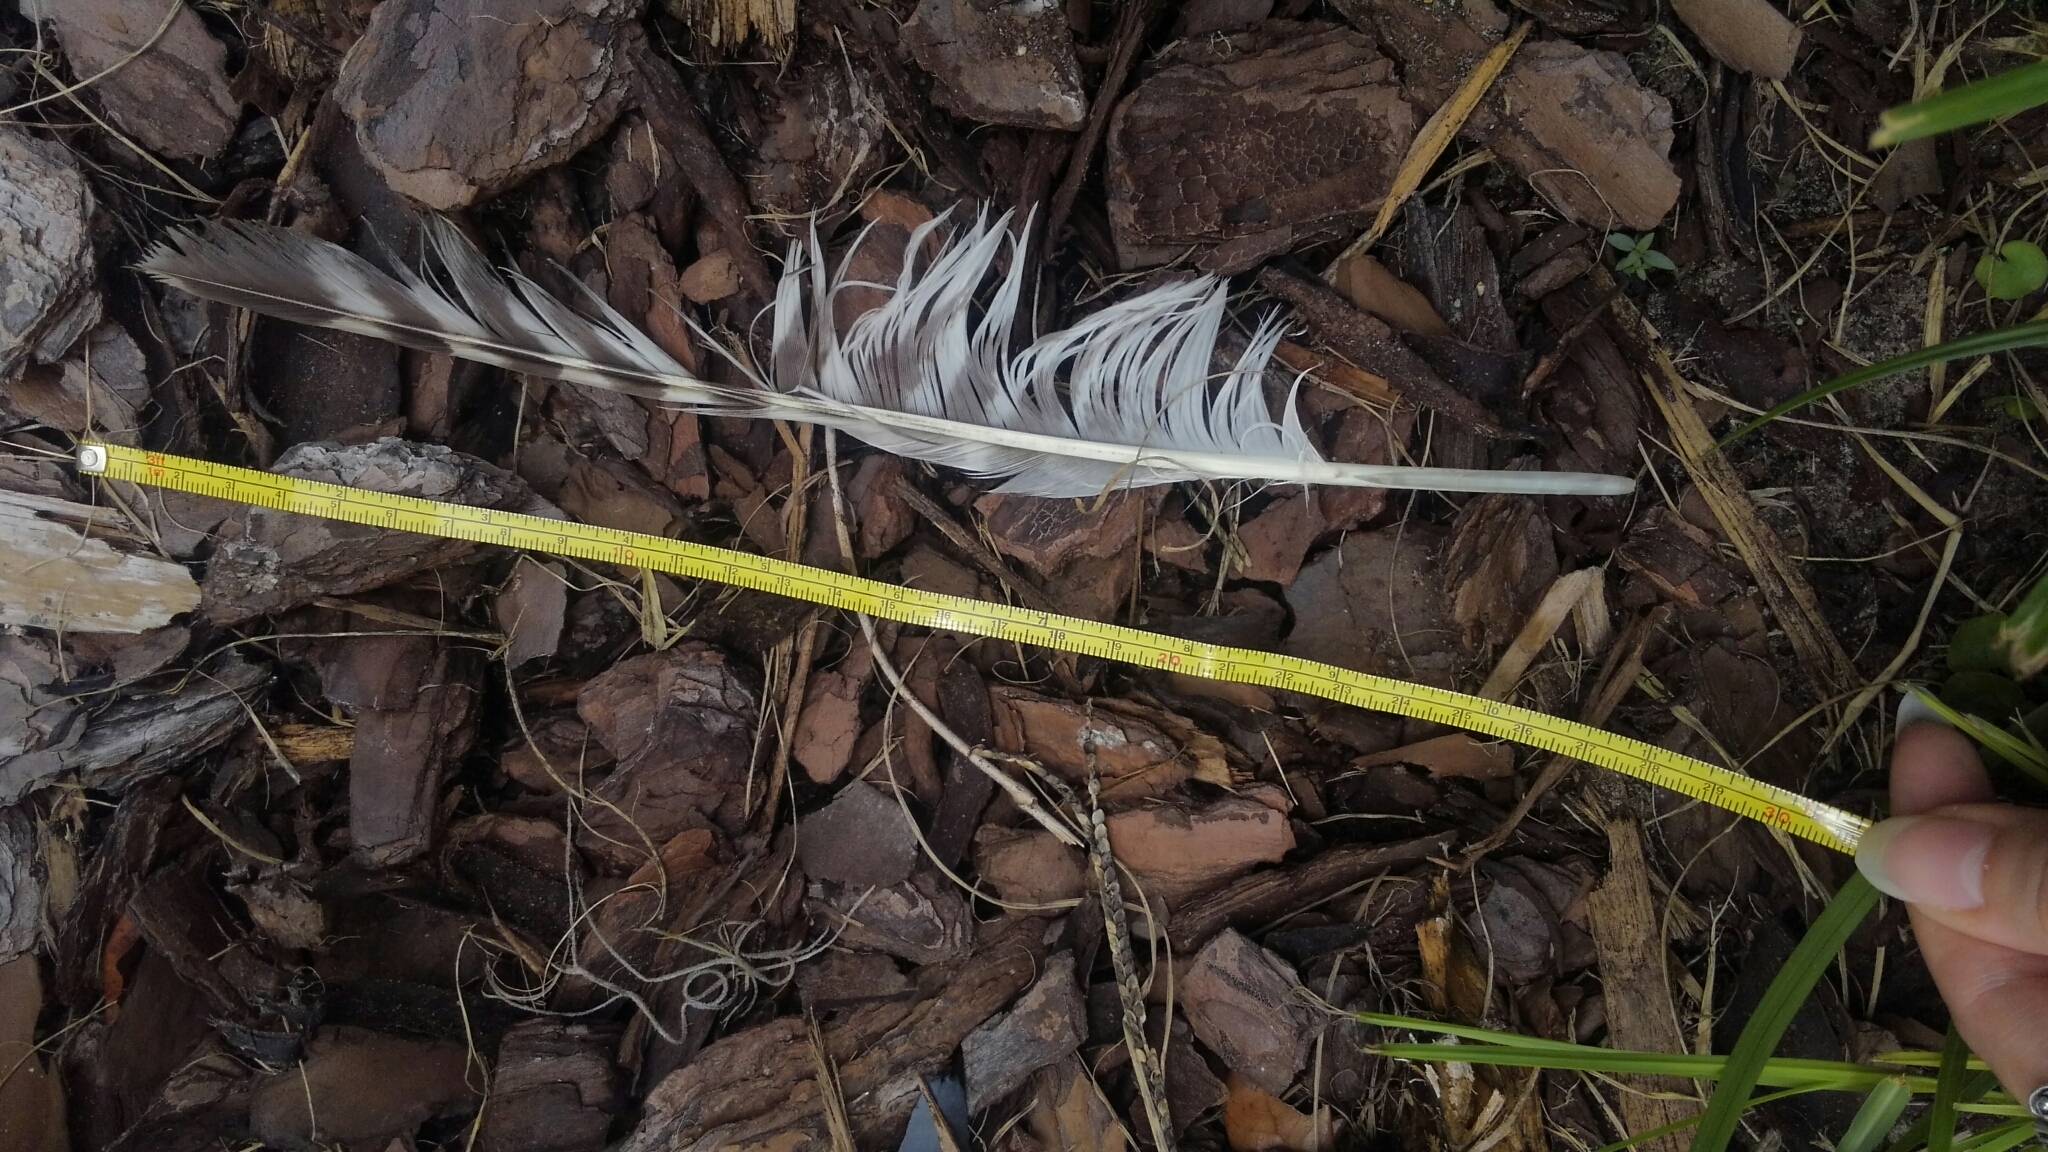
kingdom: Animalia
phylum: Chordata
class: Aves
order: Accipitriformes
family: Accipitridae
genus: Buteo
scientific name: Buteo lineatus
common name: Red-shouldered hawk
